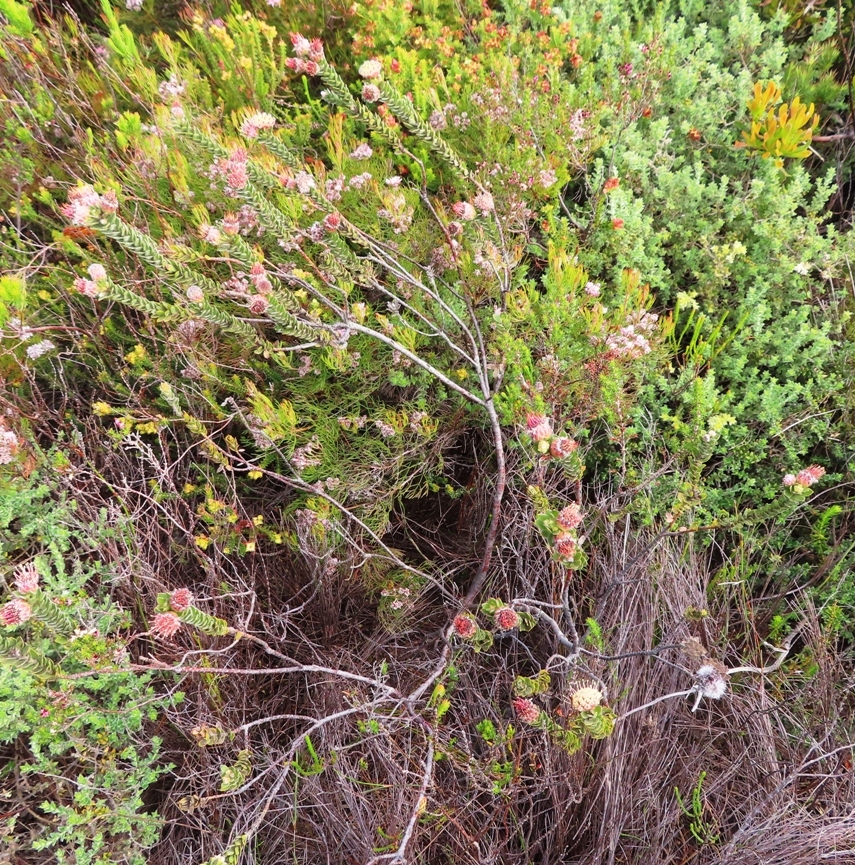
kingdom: Plantae
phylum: Tracheophyta
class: Magnoliopsida
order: Proteales
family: Proteaceae
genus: Leucospermum
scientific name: Leucospermum truncatulum
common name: Oval-leaf pincushion
